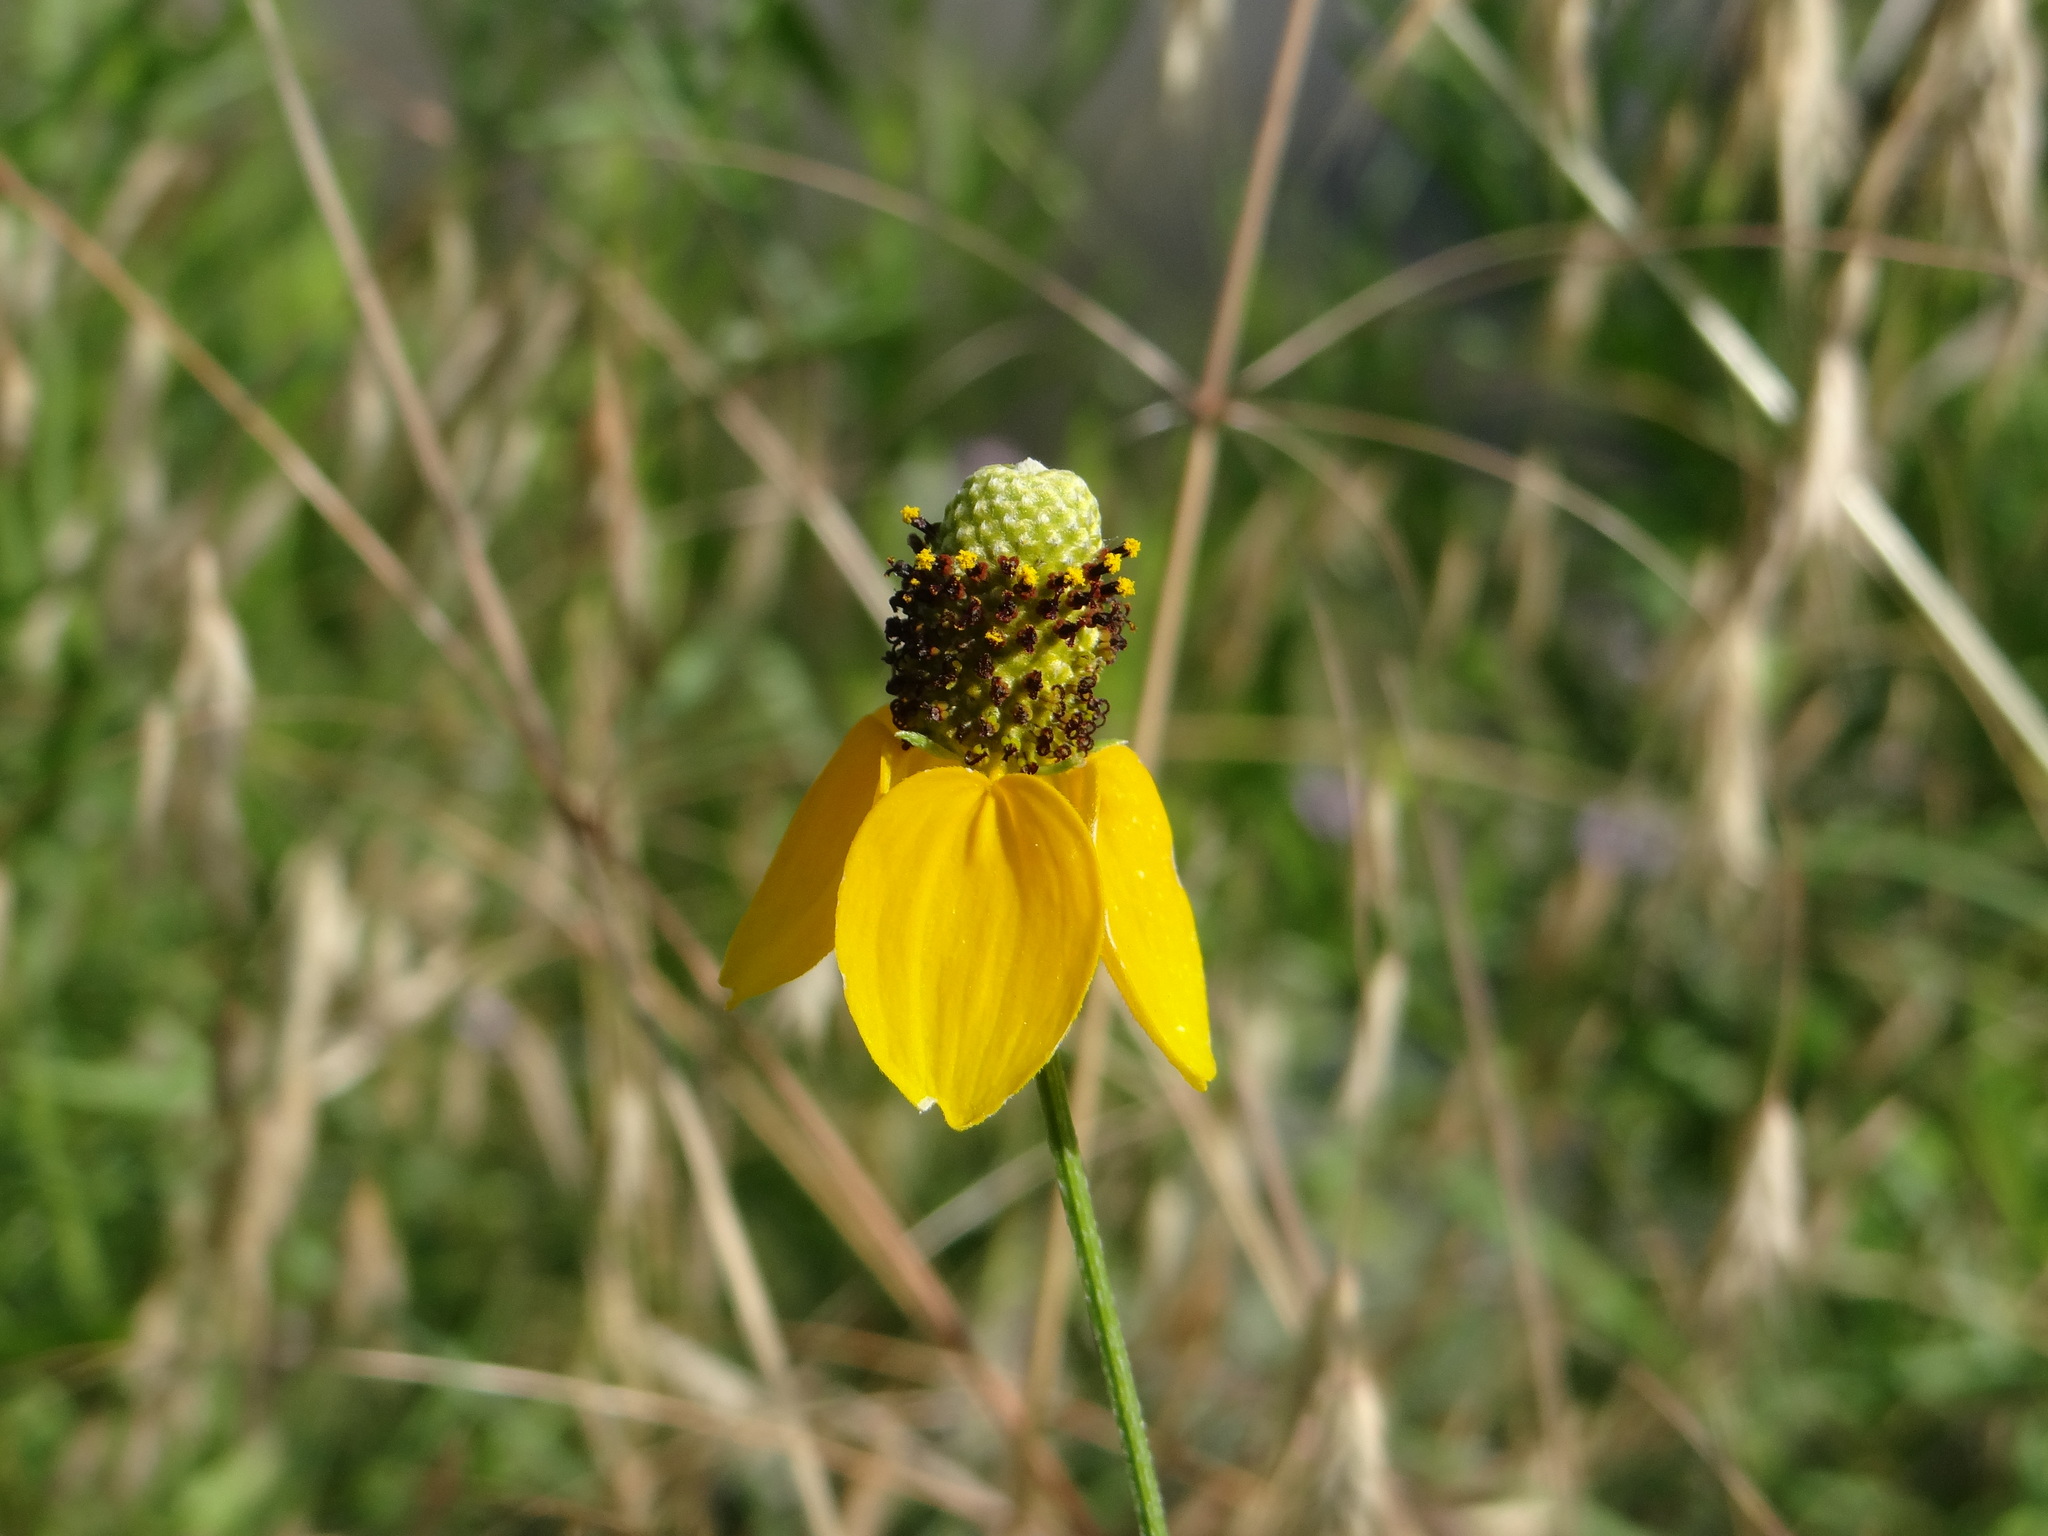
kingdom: Plantae
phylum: Tracheophyta
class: Magnoliopsida
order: Asterales
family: Asteraceae
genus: Ratibida
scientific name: Ratibida columnifera
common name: Prairie coneflower
